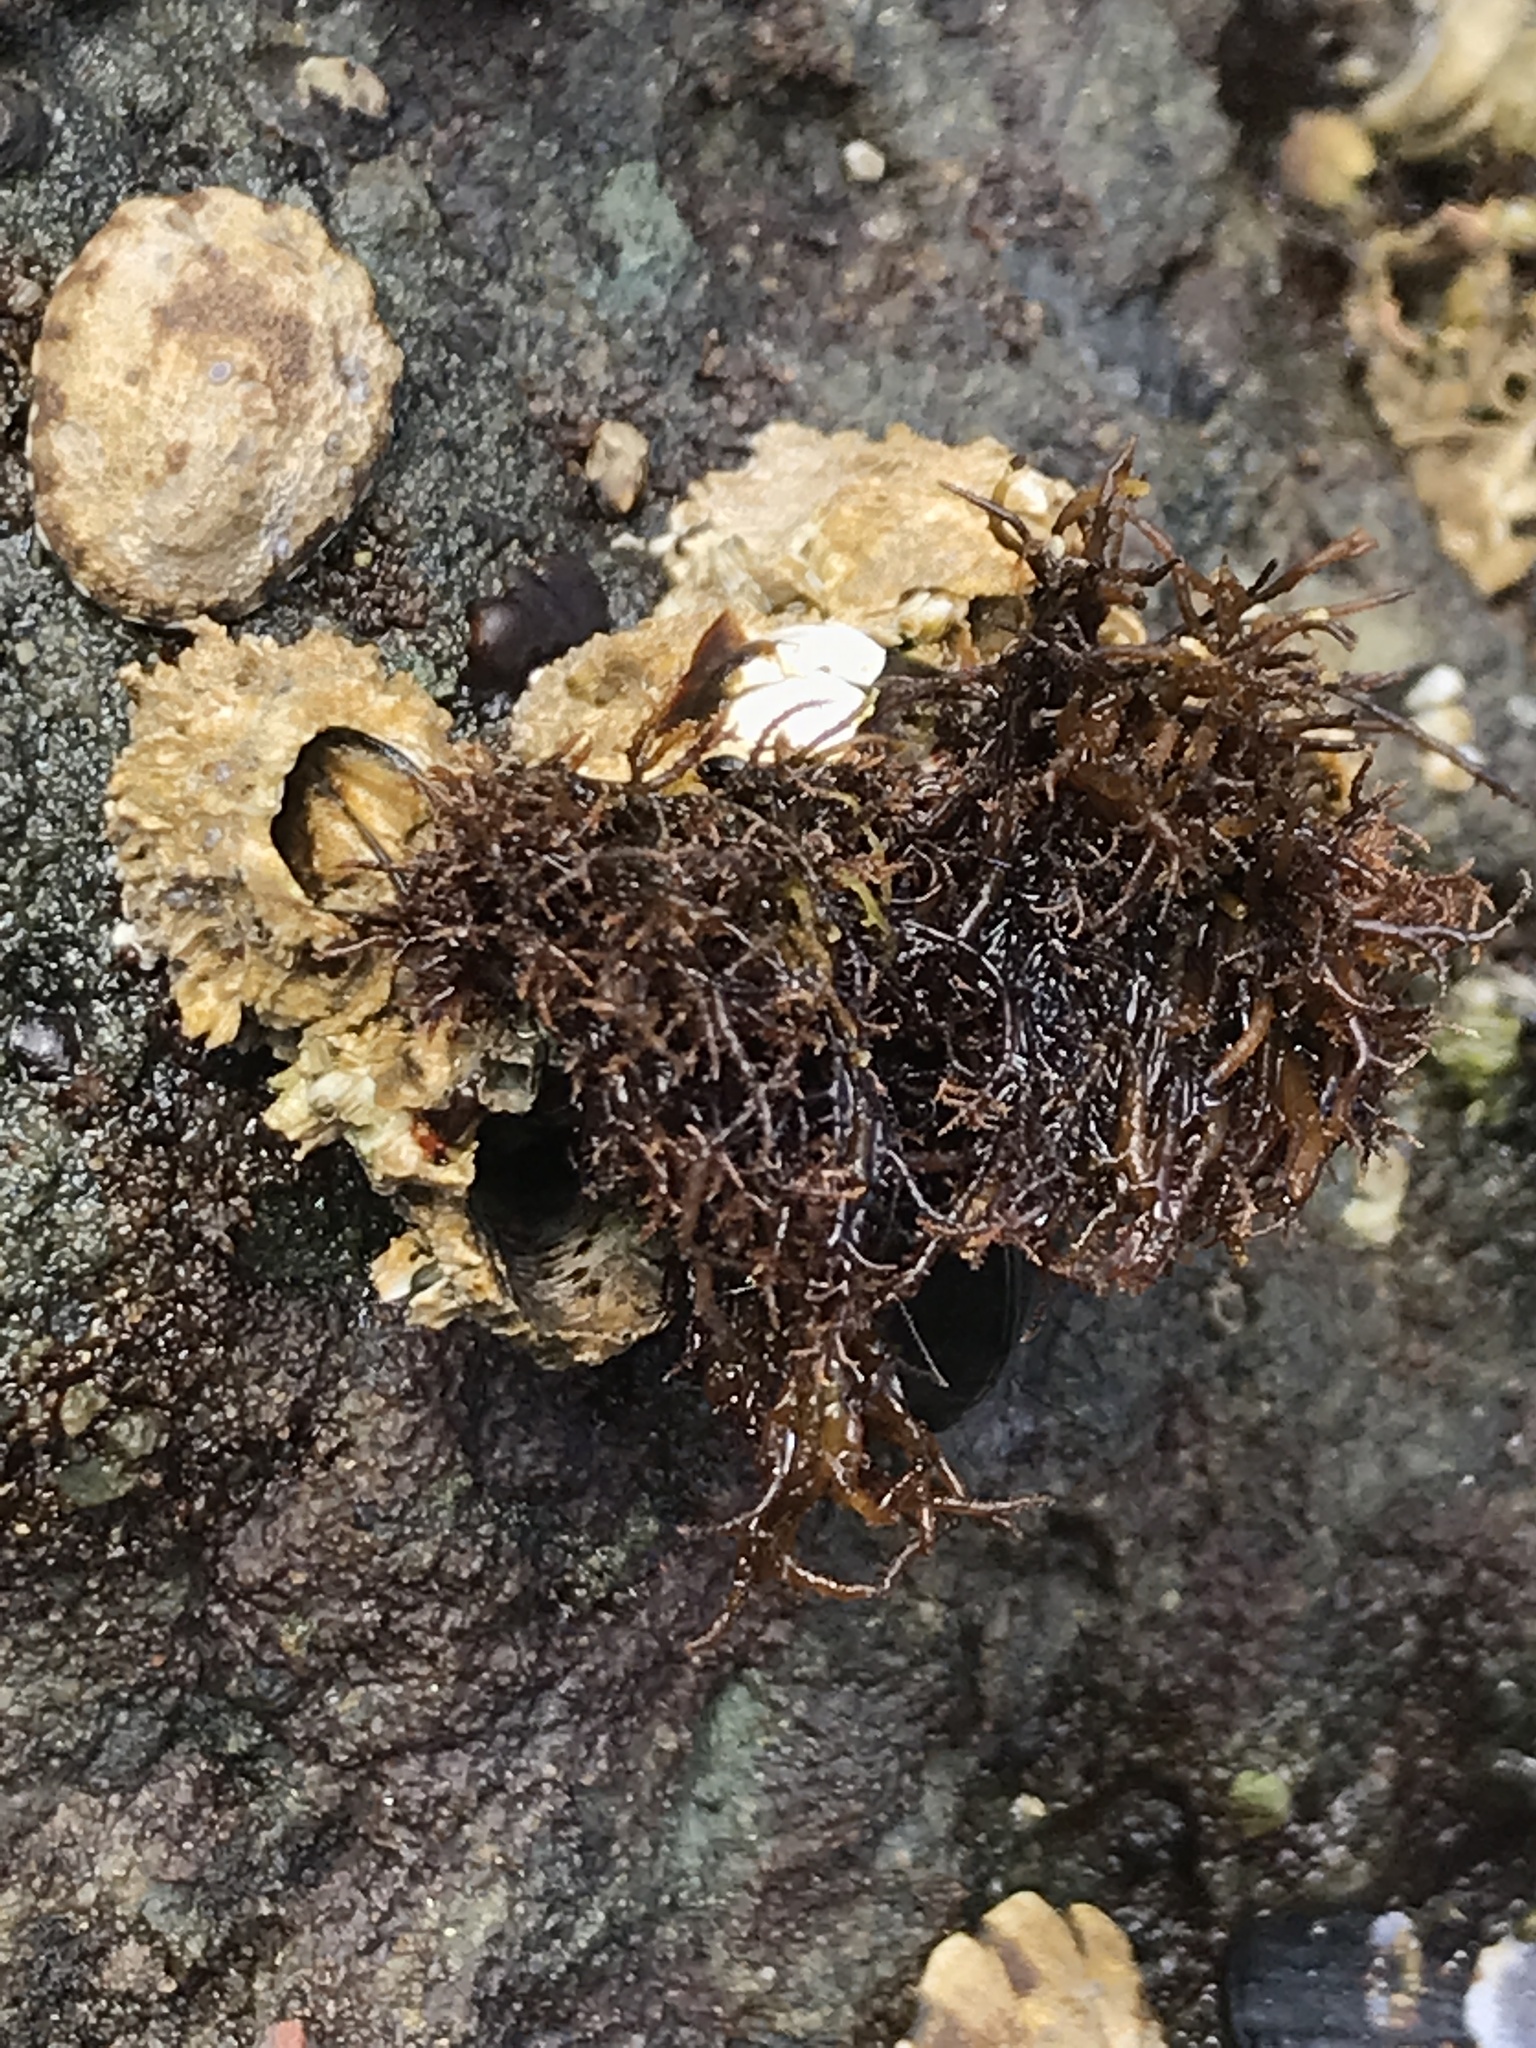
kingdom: Plantae
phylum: Rhodophyta
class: Florideophyceae
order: Gigartinales
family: Endocladiaceae
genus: Endocladia
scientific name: Endocladia muricata
